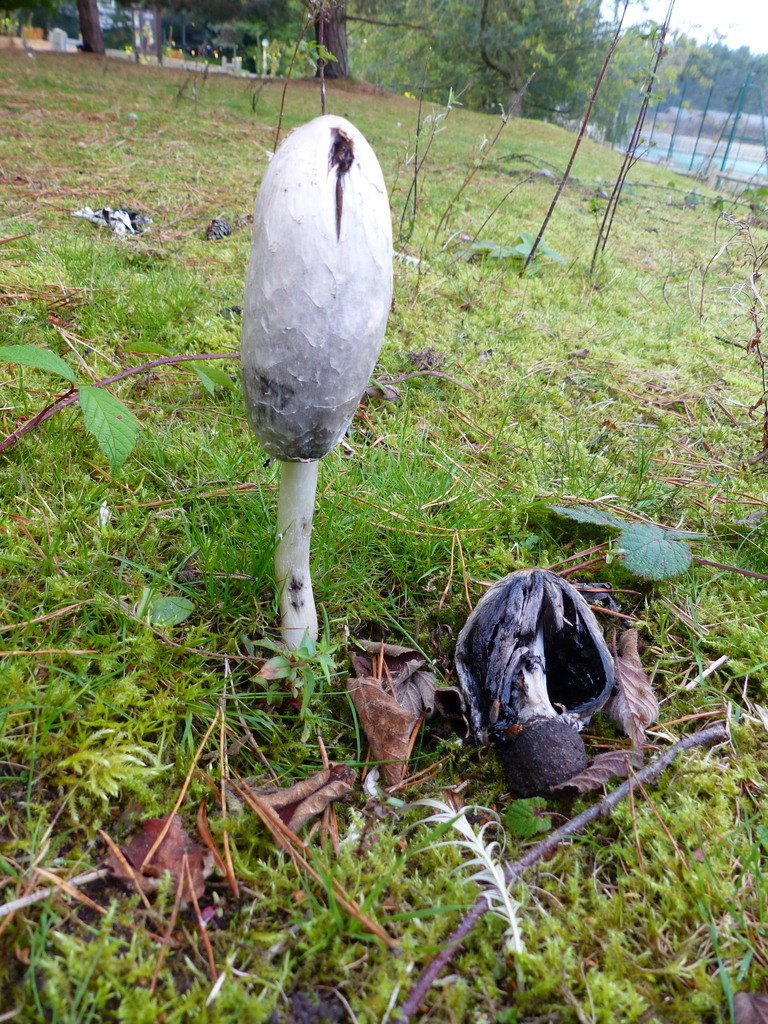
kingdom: Fungi
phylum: Basidiomycota
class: Agaricomycetes
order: Agaricales
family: Agaricaceae
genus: Coprinus
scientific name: Coprinus comatus
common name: Lawyer's wig
